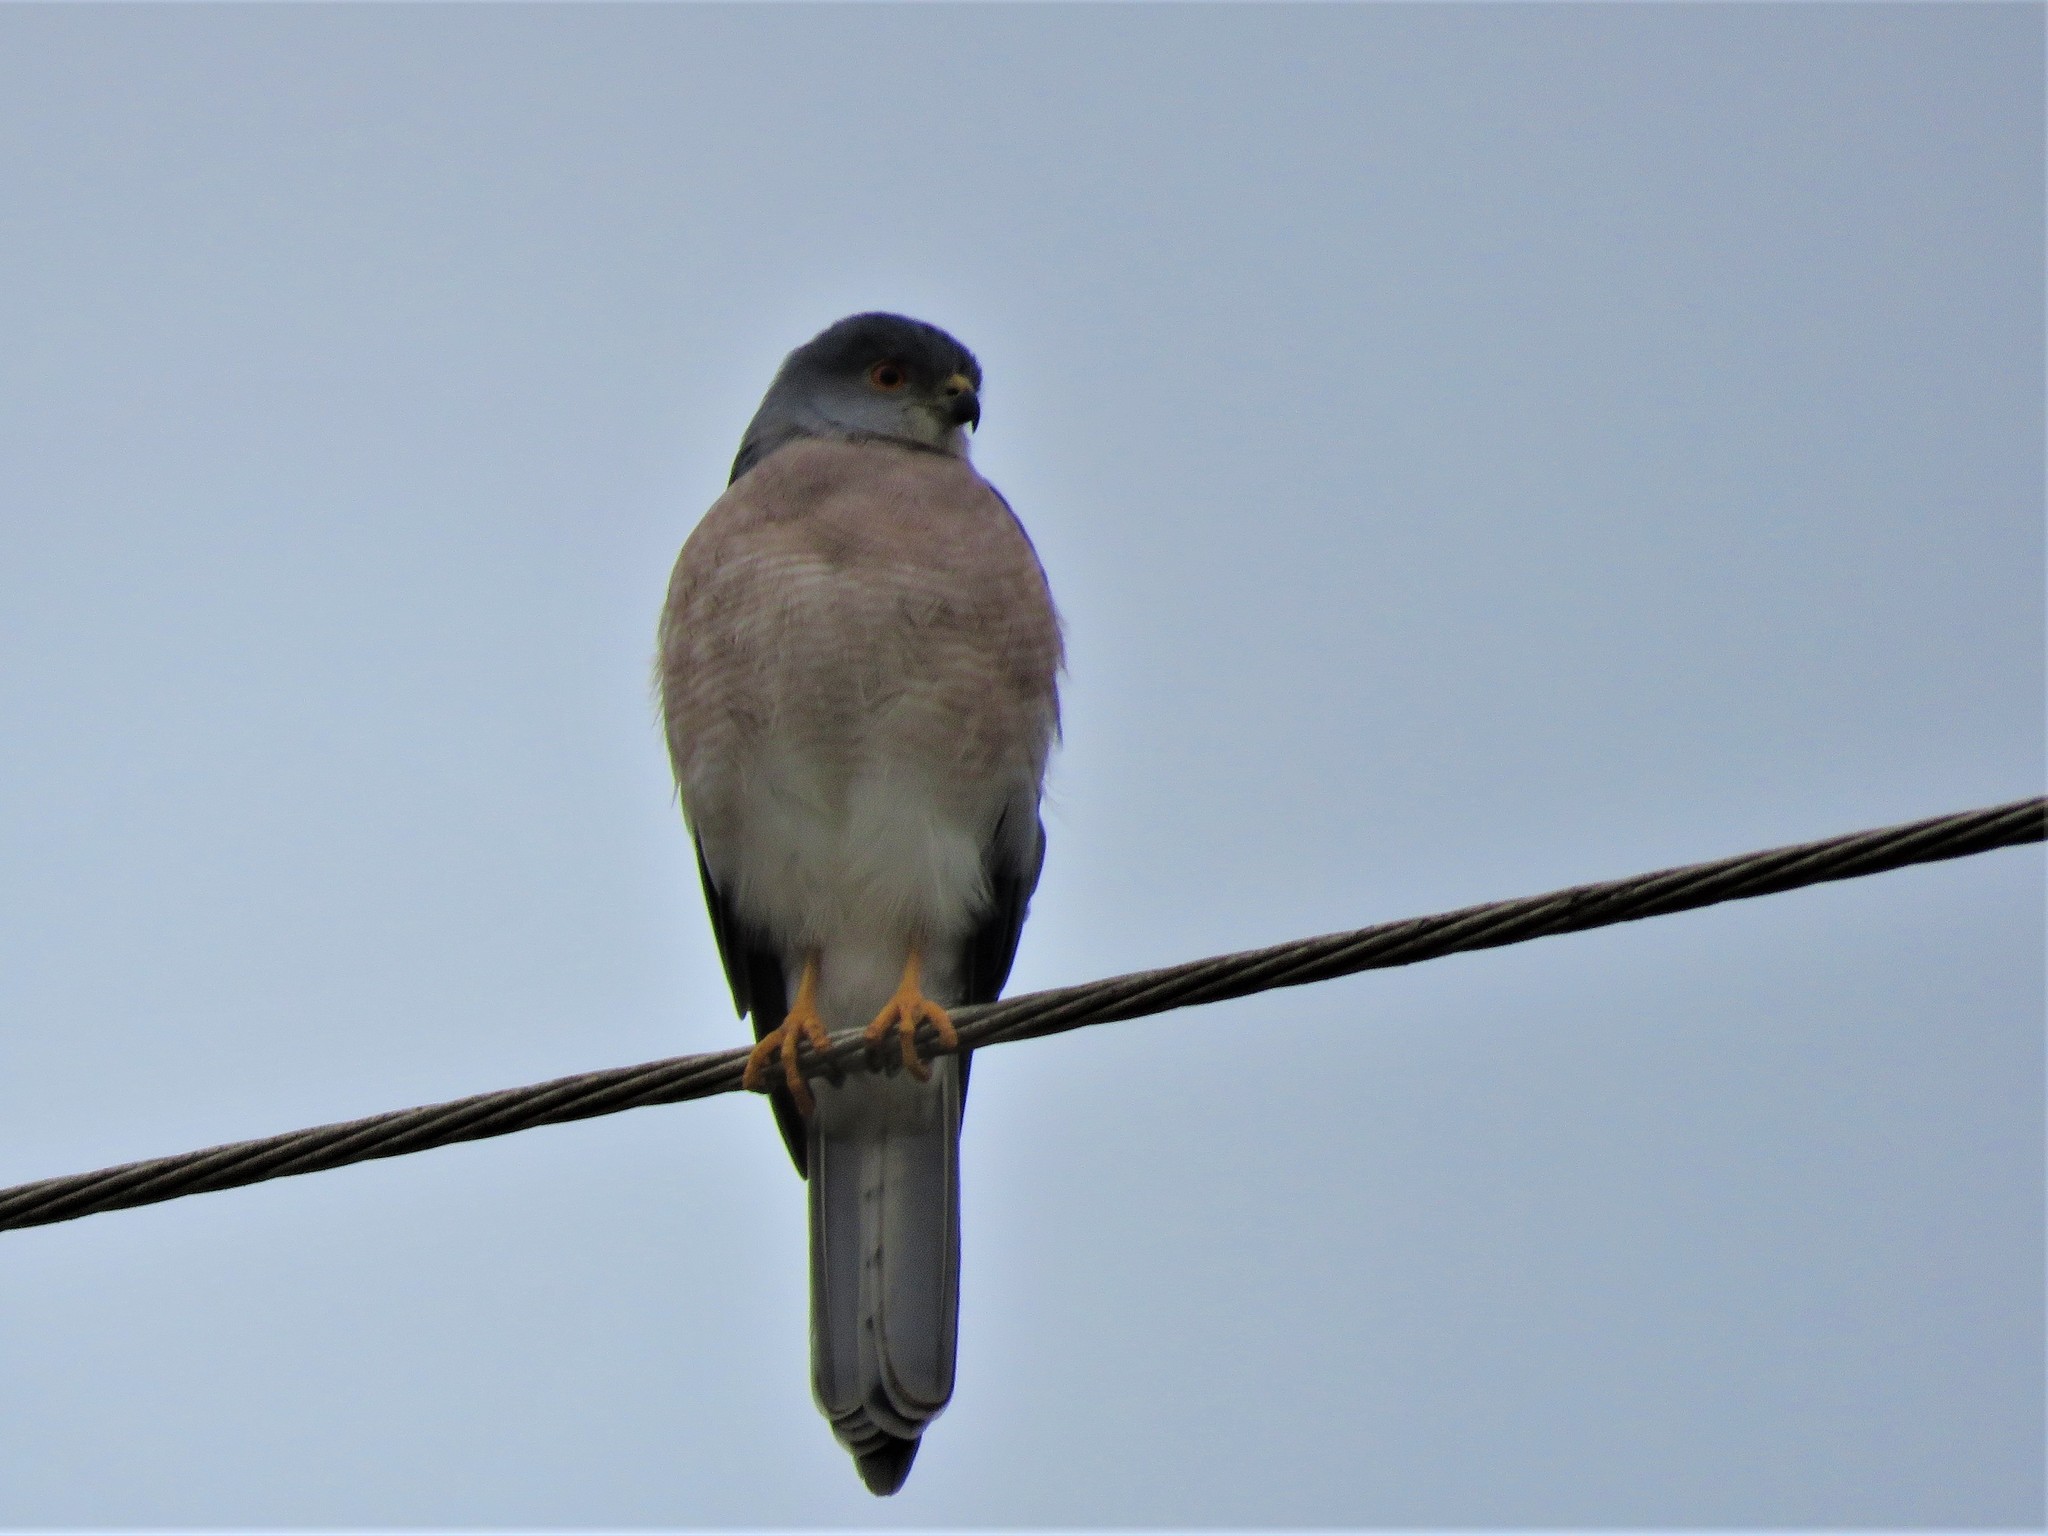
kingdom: Animalia
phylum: Chordata
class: Aves
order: Accipitriformes
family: Accipitridae
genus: Accipiter
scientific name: Accipiter badius
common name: Shikra
